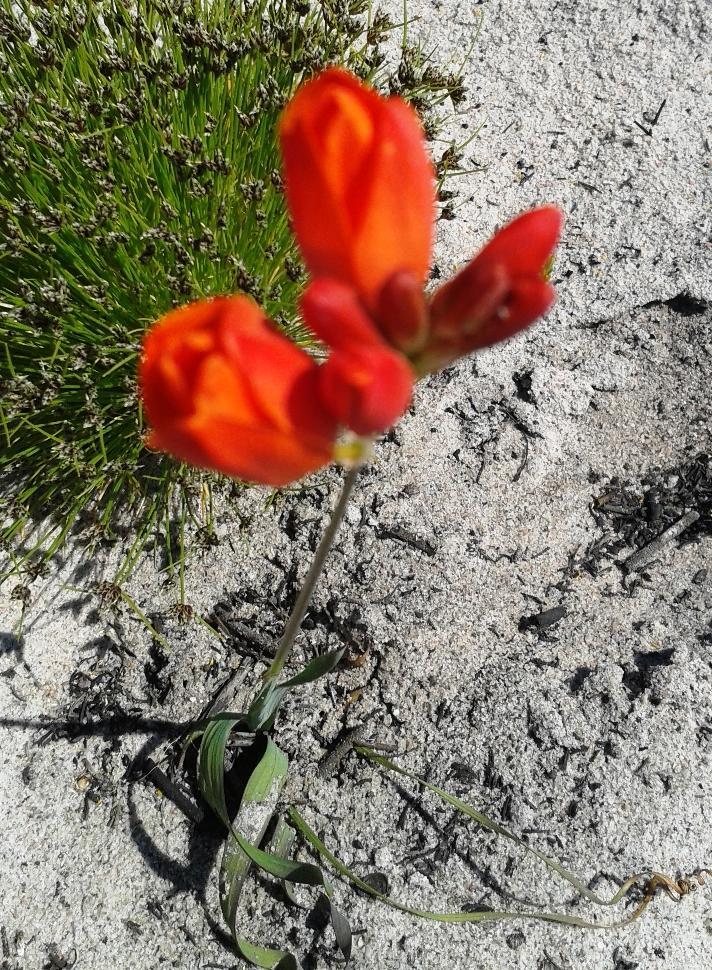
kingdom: Plantae
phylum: Tracheophyta
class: Liliopsida
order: Asparagales
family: Iridaceae
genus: Ixia
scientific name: Ixia maculata
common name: Spotted african cornlily
